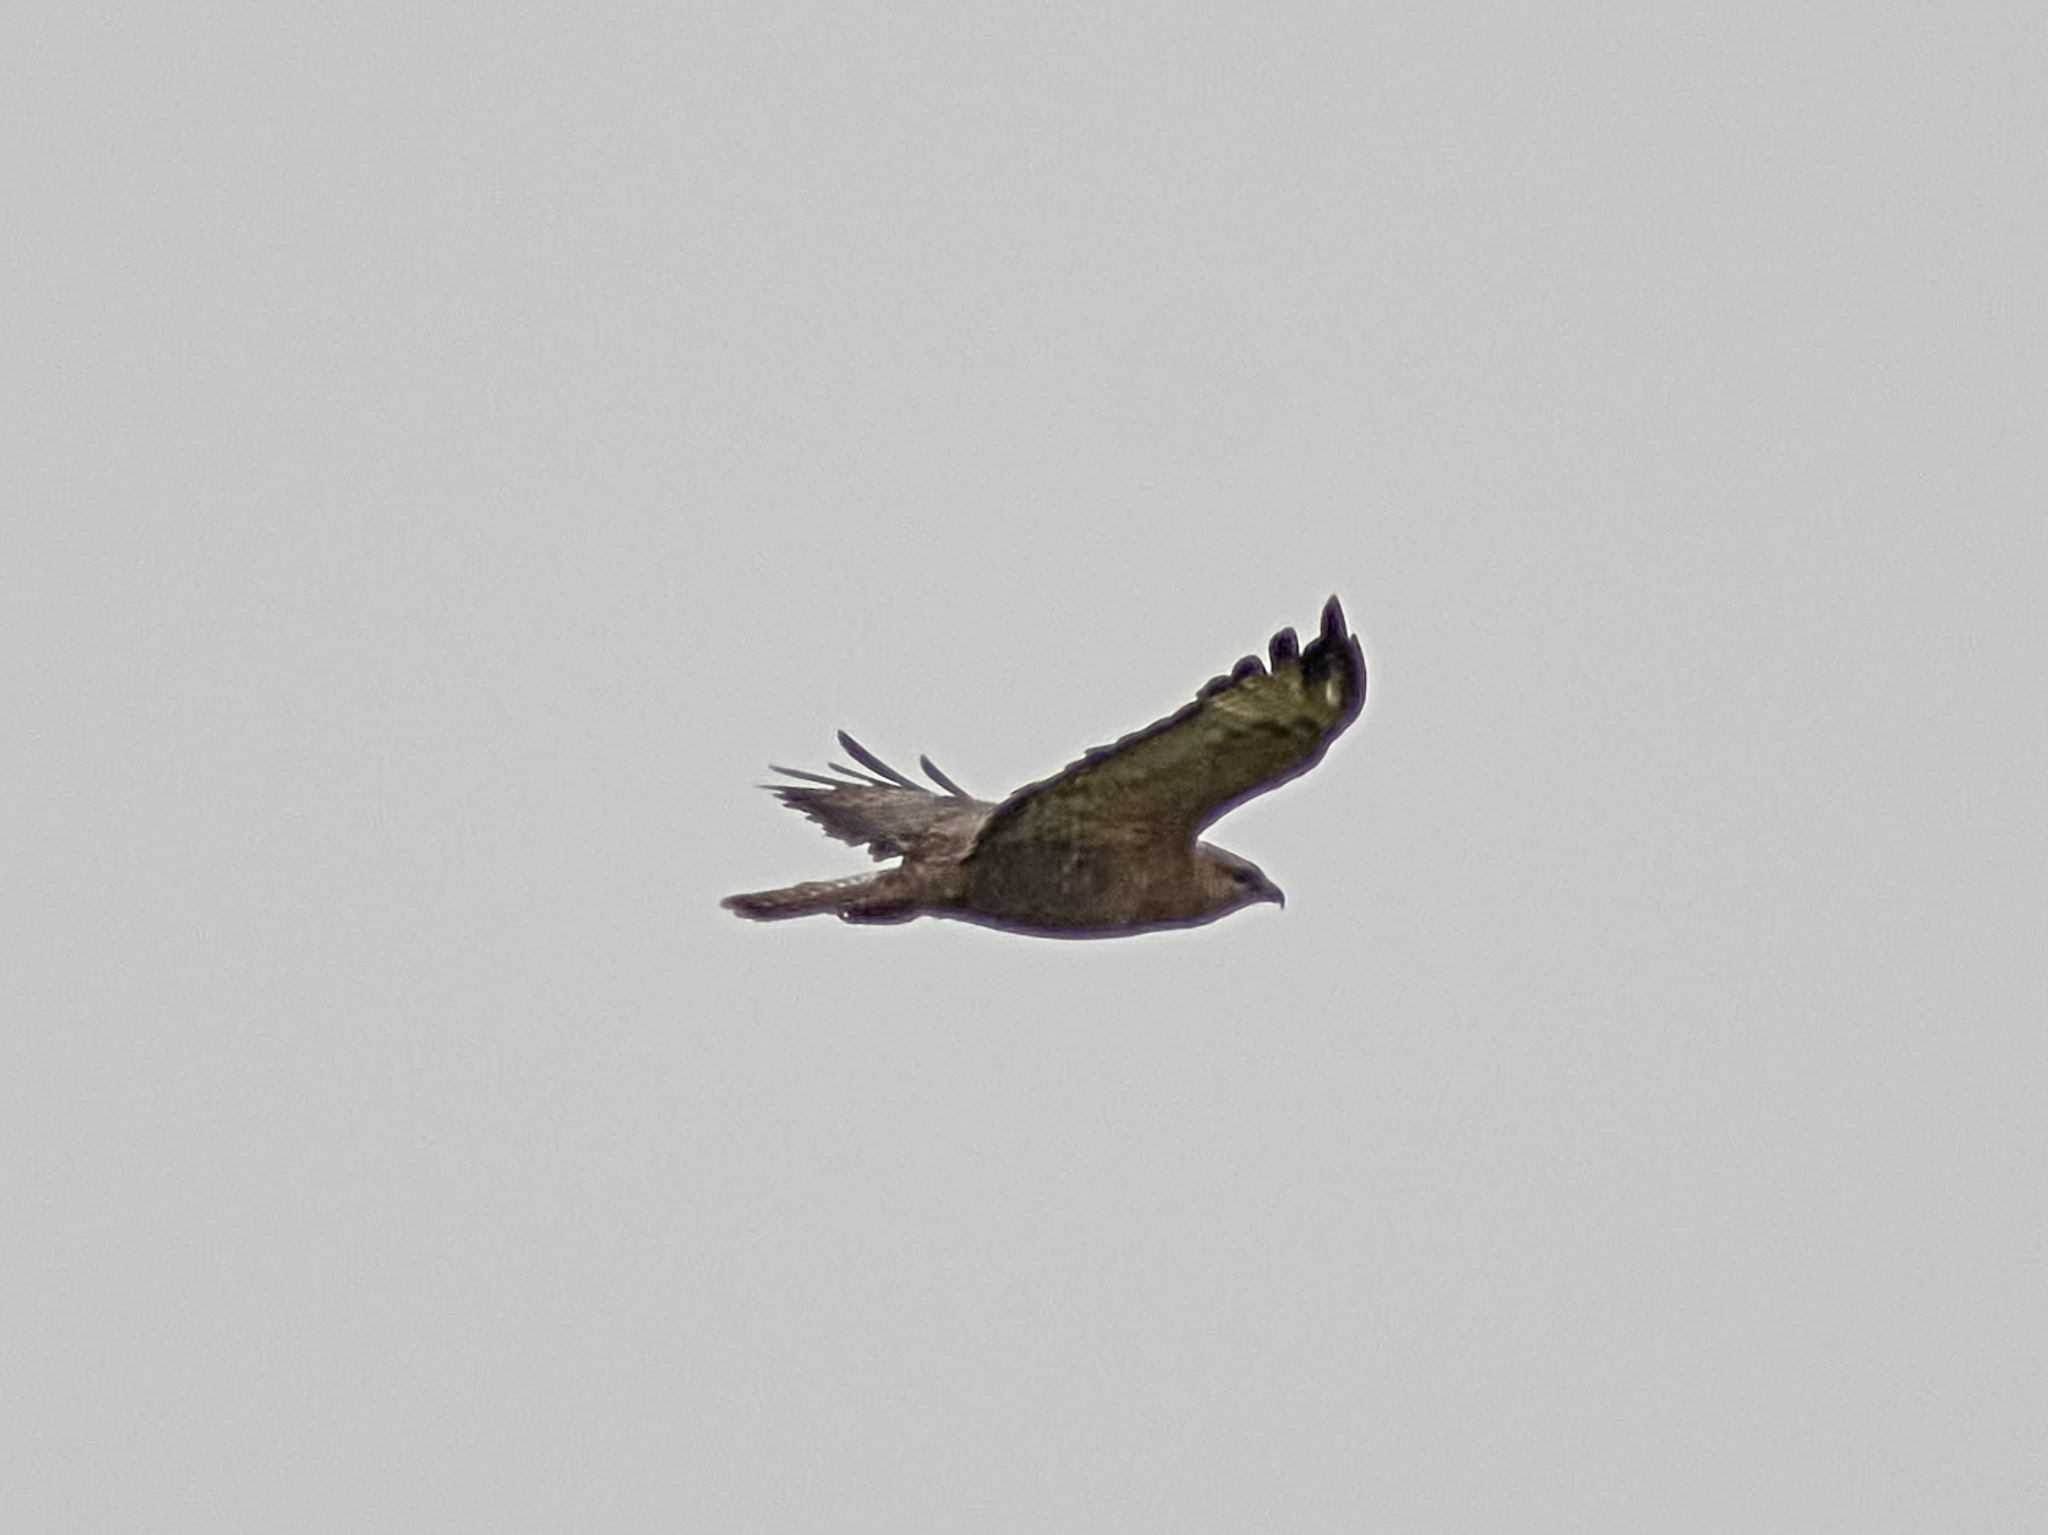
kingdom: Animalia
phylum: Chordata
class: Aves
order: Accipitriformes
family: Accipitridae
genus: Buteo
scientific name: Buteo buteo
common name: Common buzzard
